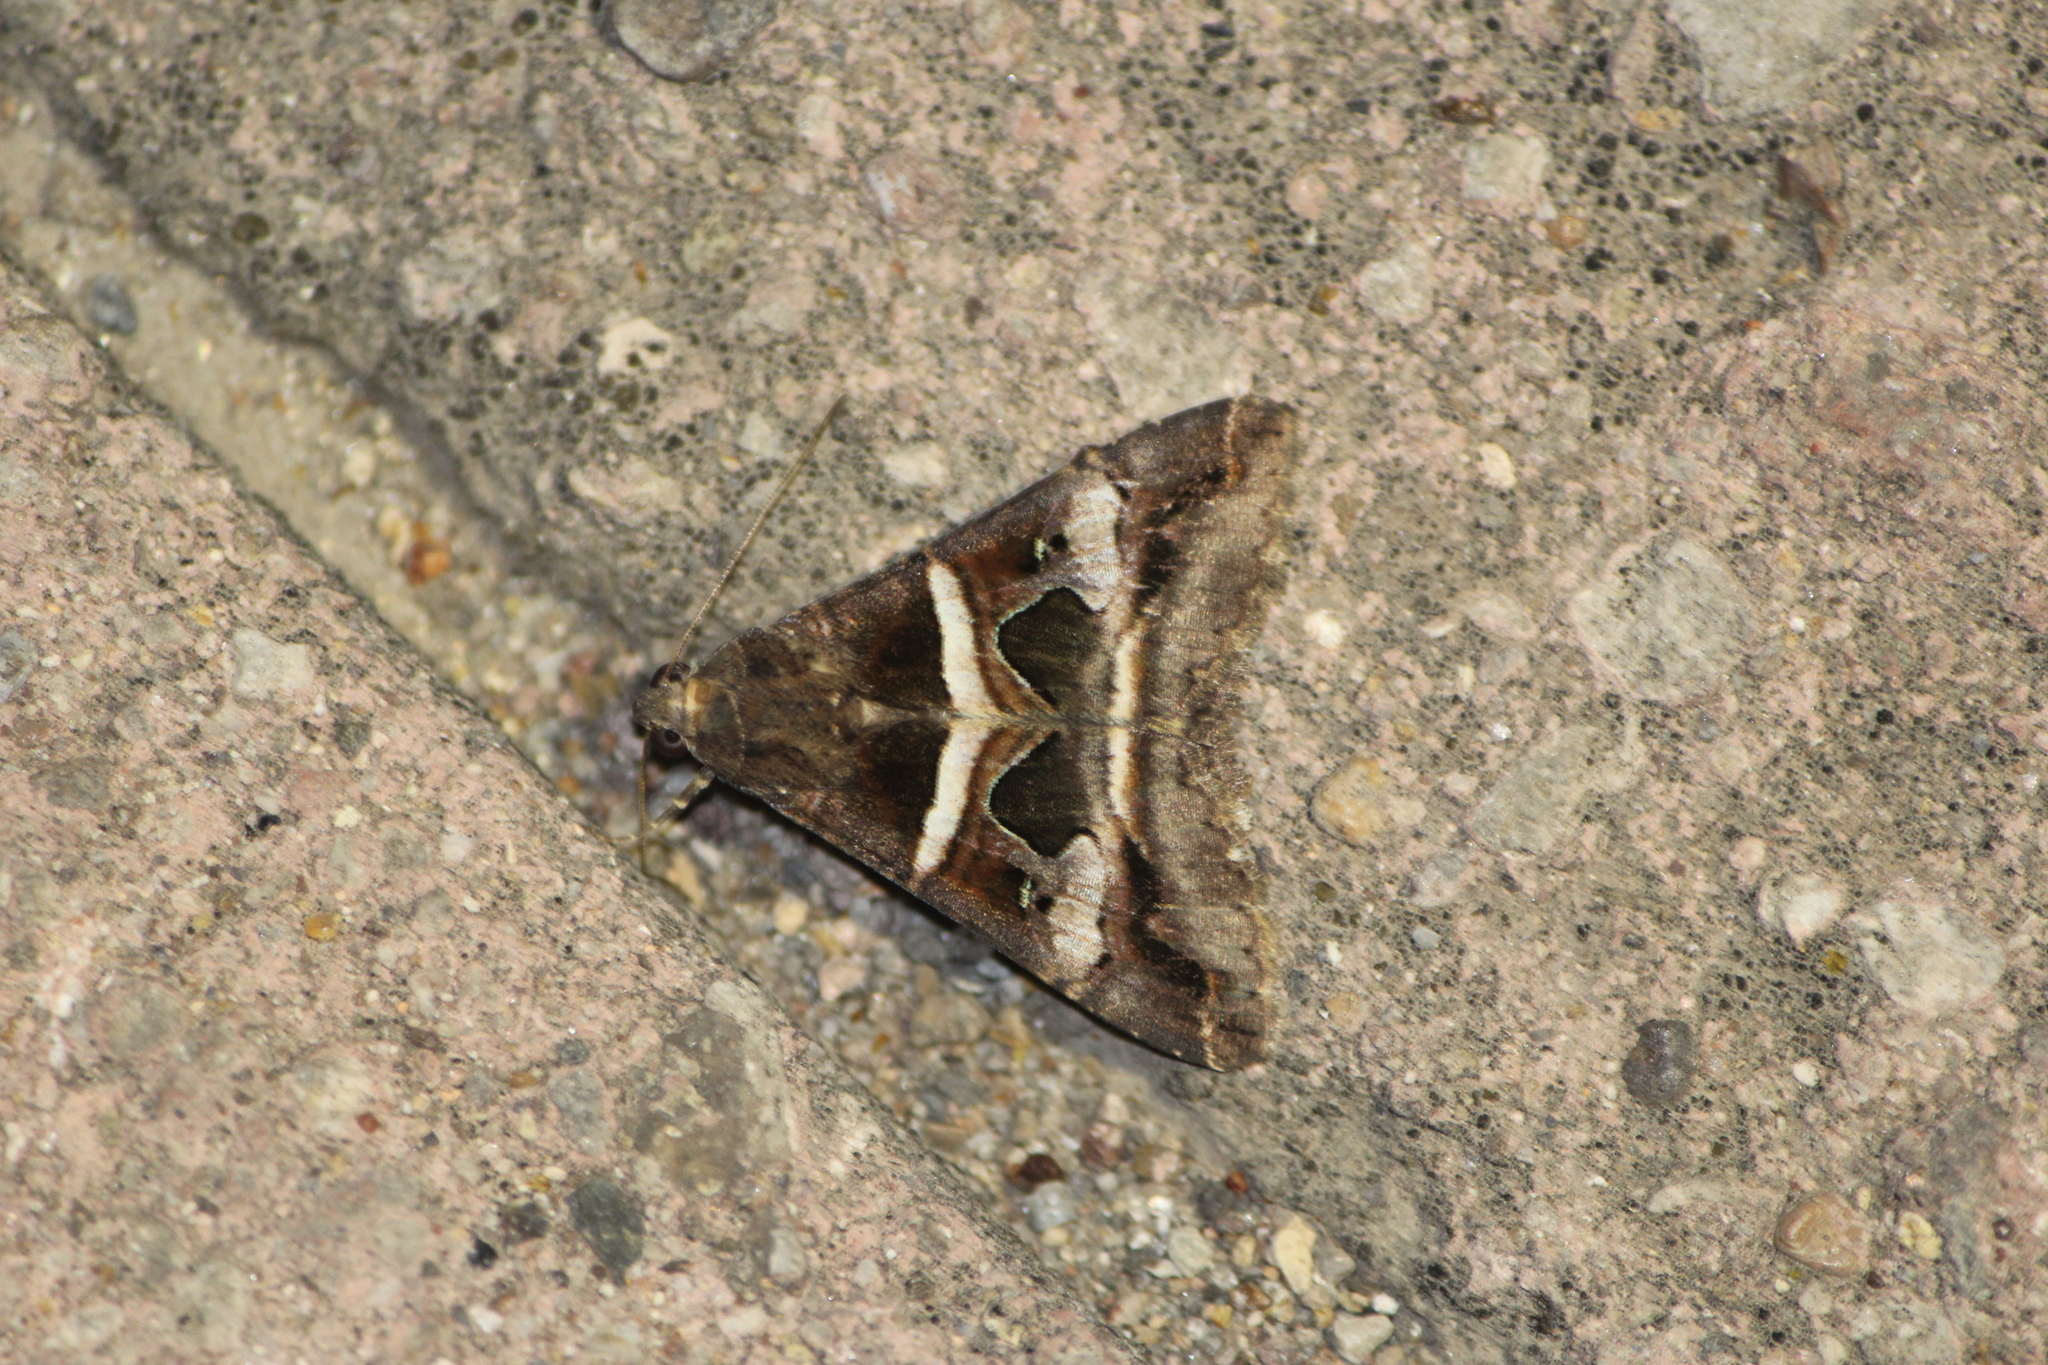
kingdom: Animalia
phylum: Arthropoda
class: Insecta
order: Lepidoptera
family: Erebidae
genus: Melipotis
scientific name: Melipotis perpendicularis
